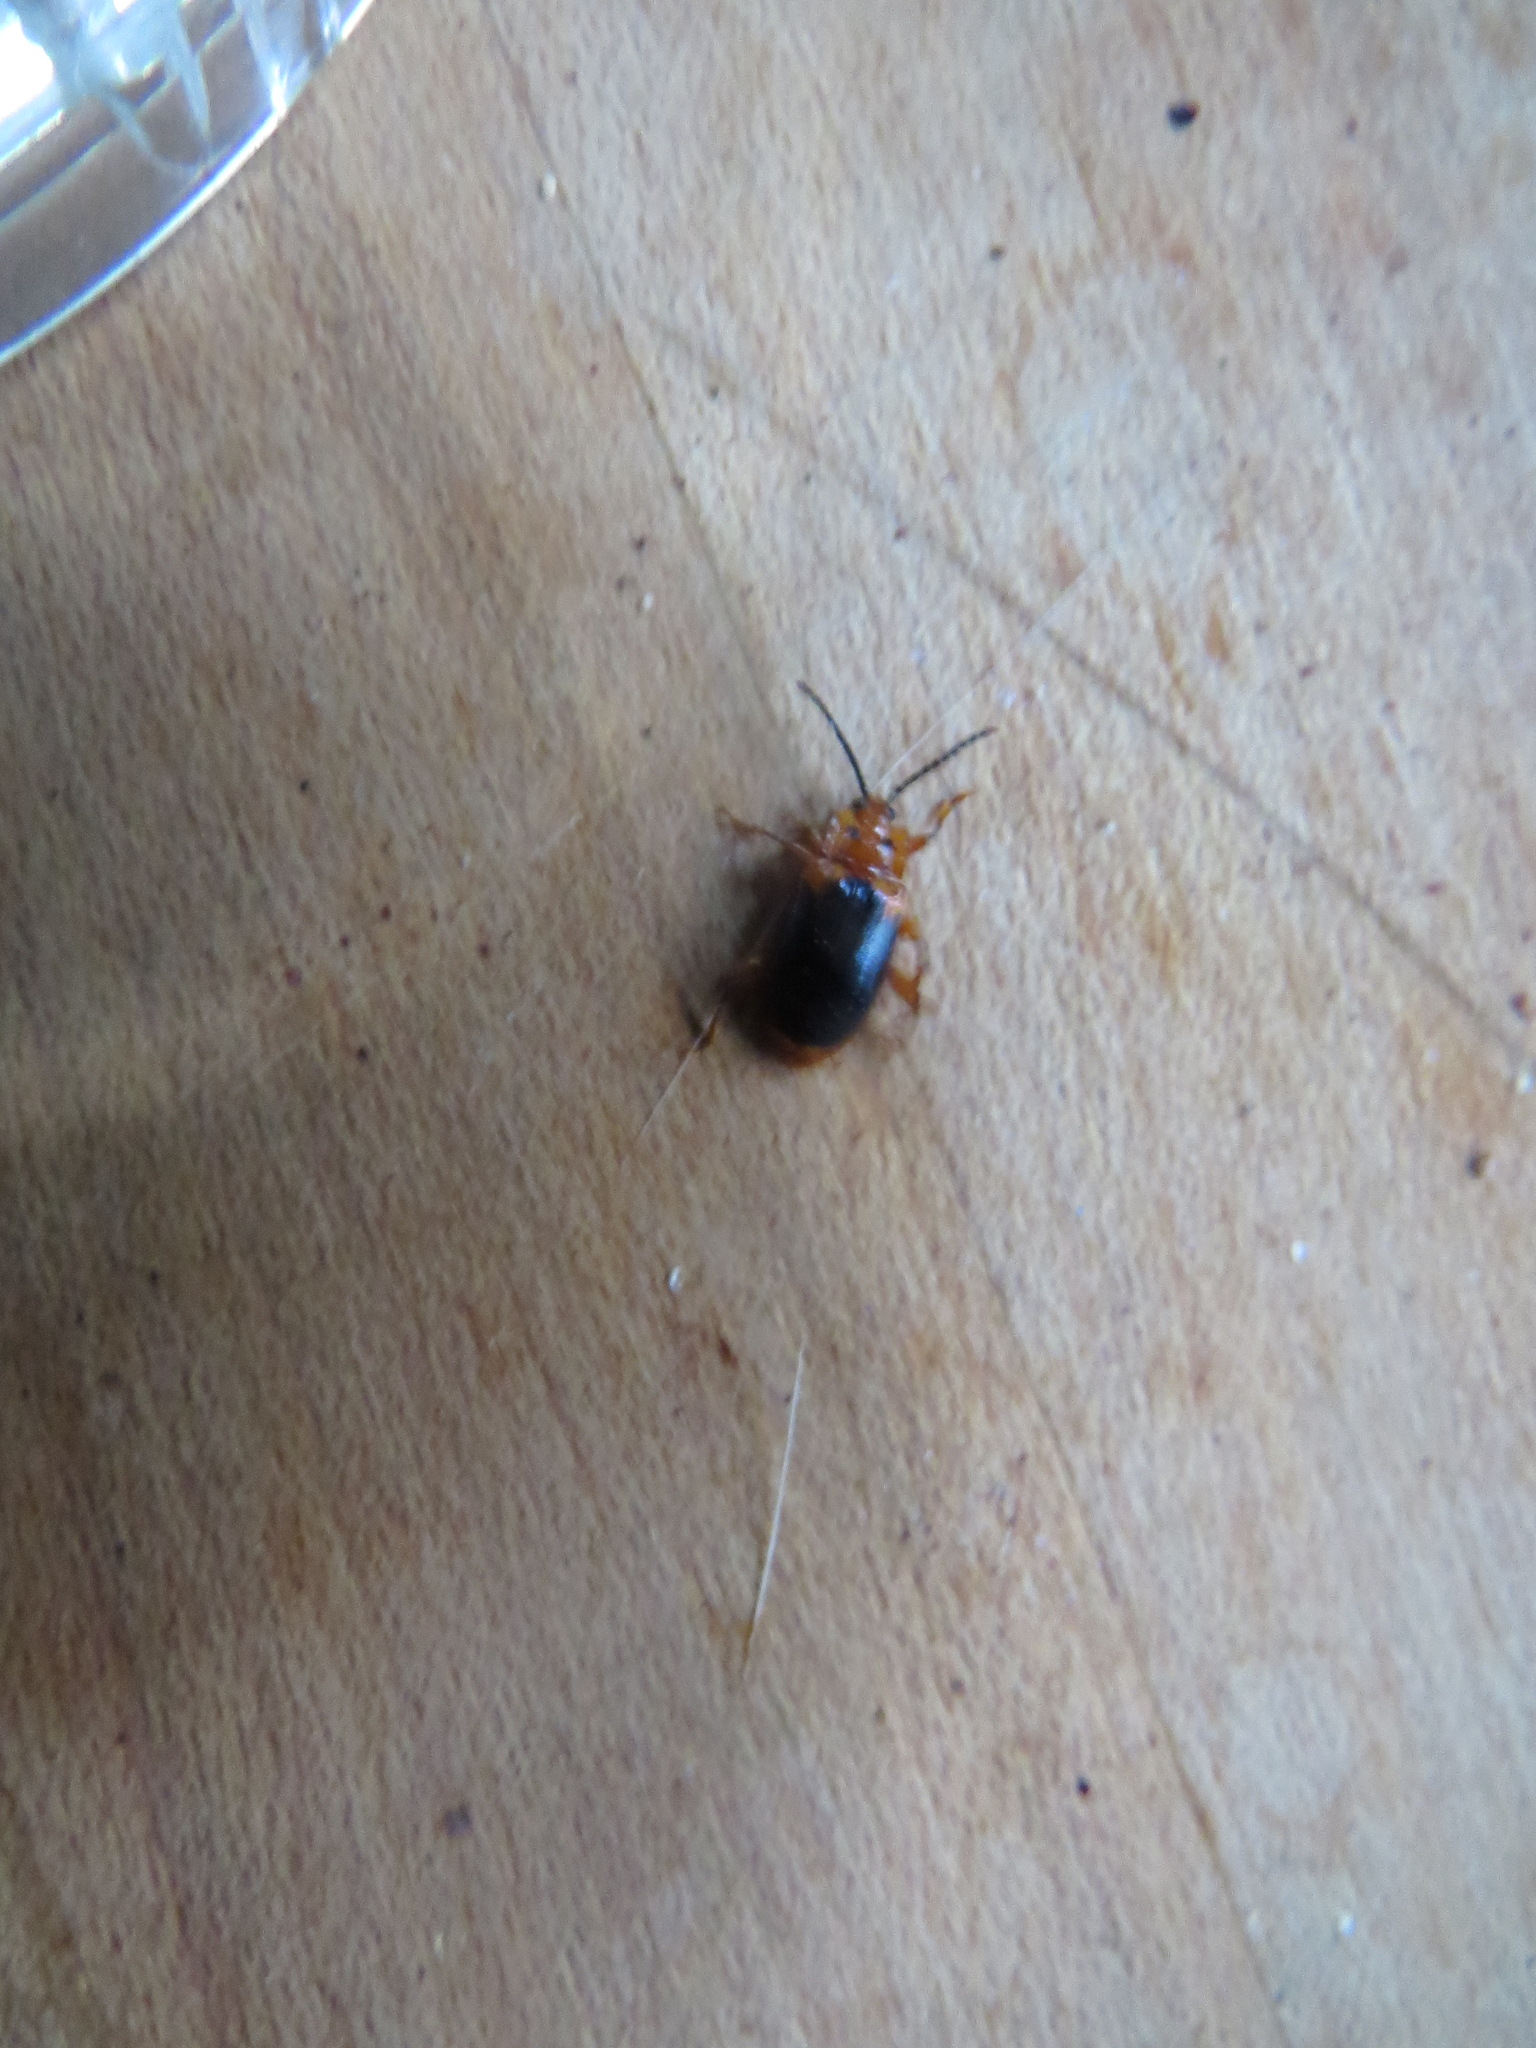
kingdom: Animalia
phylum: Arthropoda
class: Insecta
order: Coleoptera
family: Endomychidae
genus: Aphorista
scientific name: Aphorista laeta
